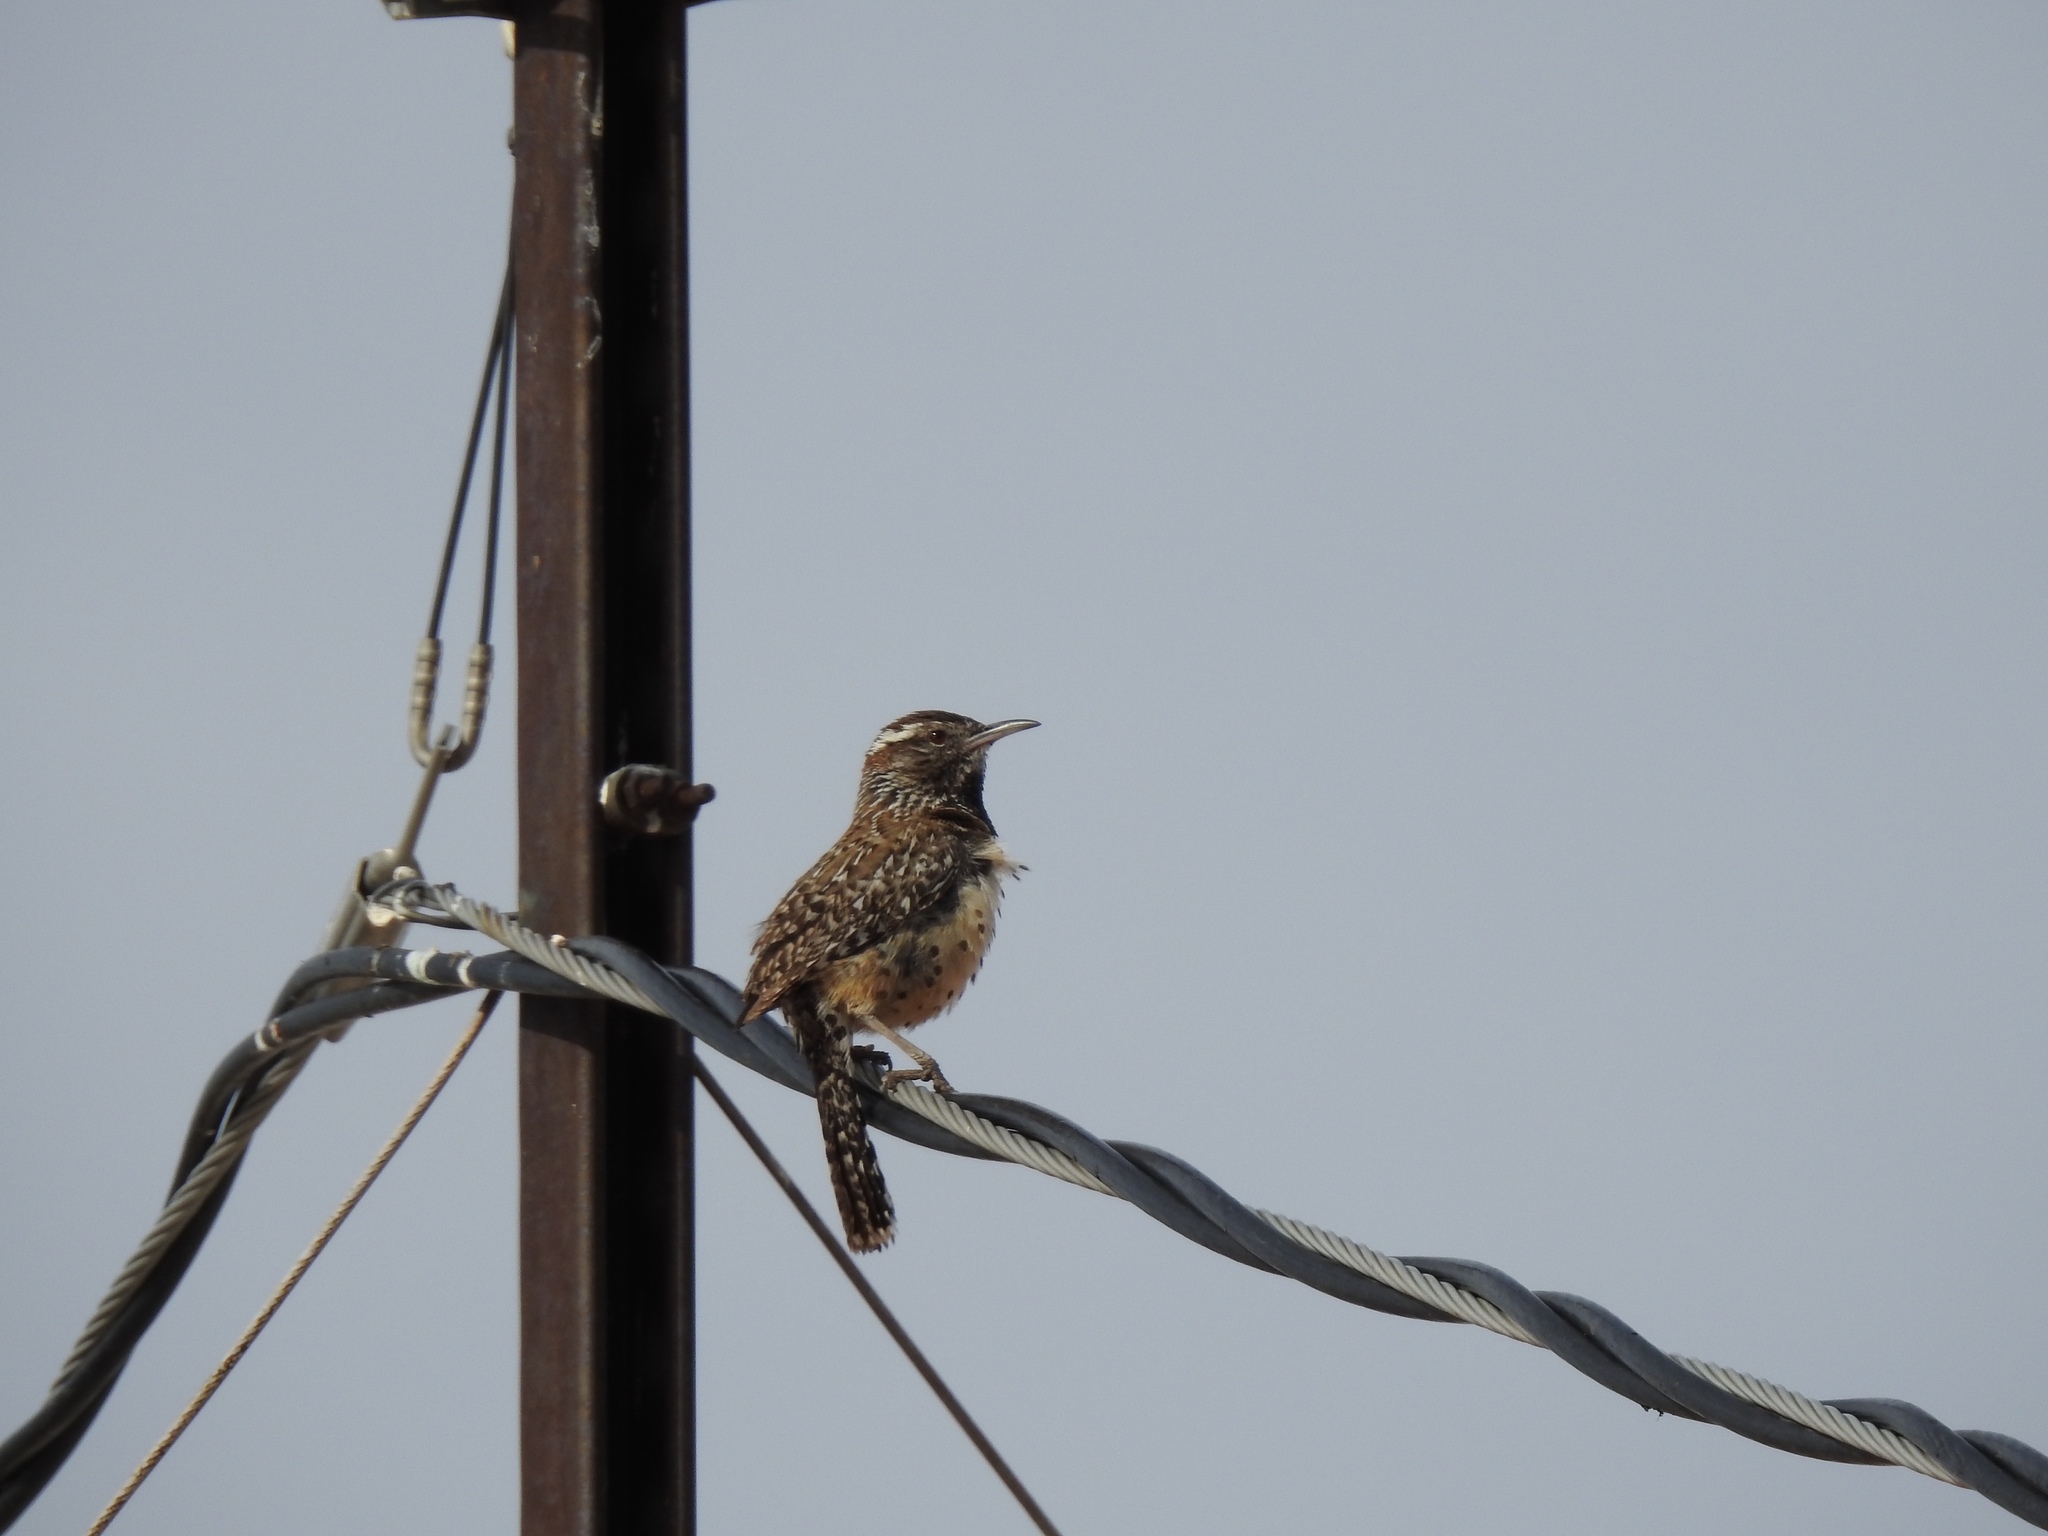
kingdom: Animalia
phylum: Chordata
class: Aves
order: Passeriformes
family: Troglodytidae
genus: Campylorhynchus
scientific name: Campylorhynchus brunneicapillus
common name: Cactus wren
